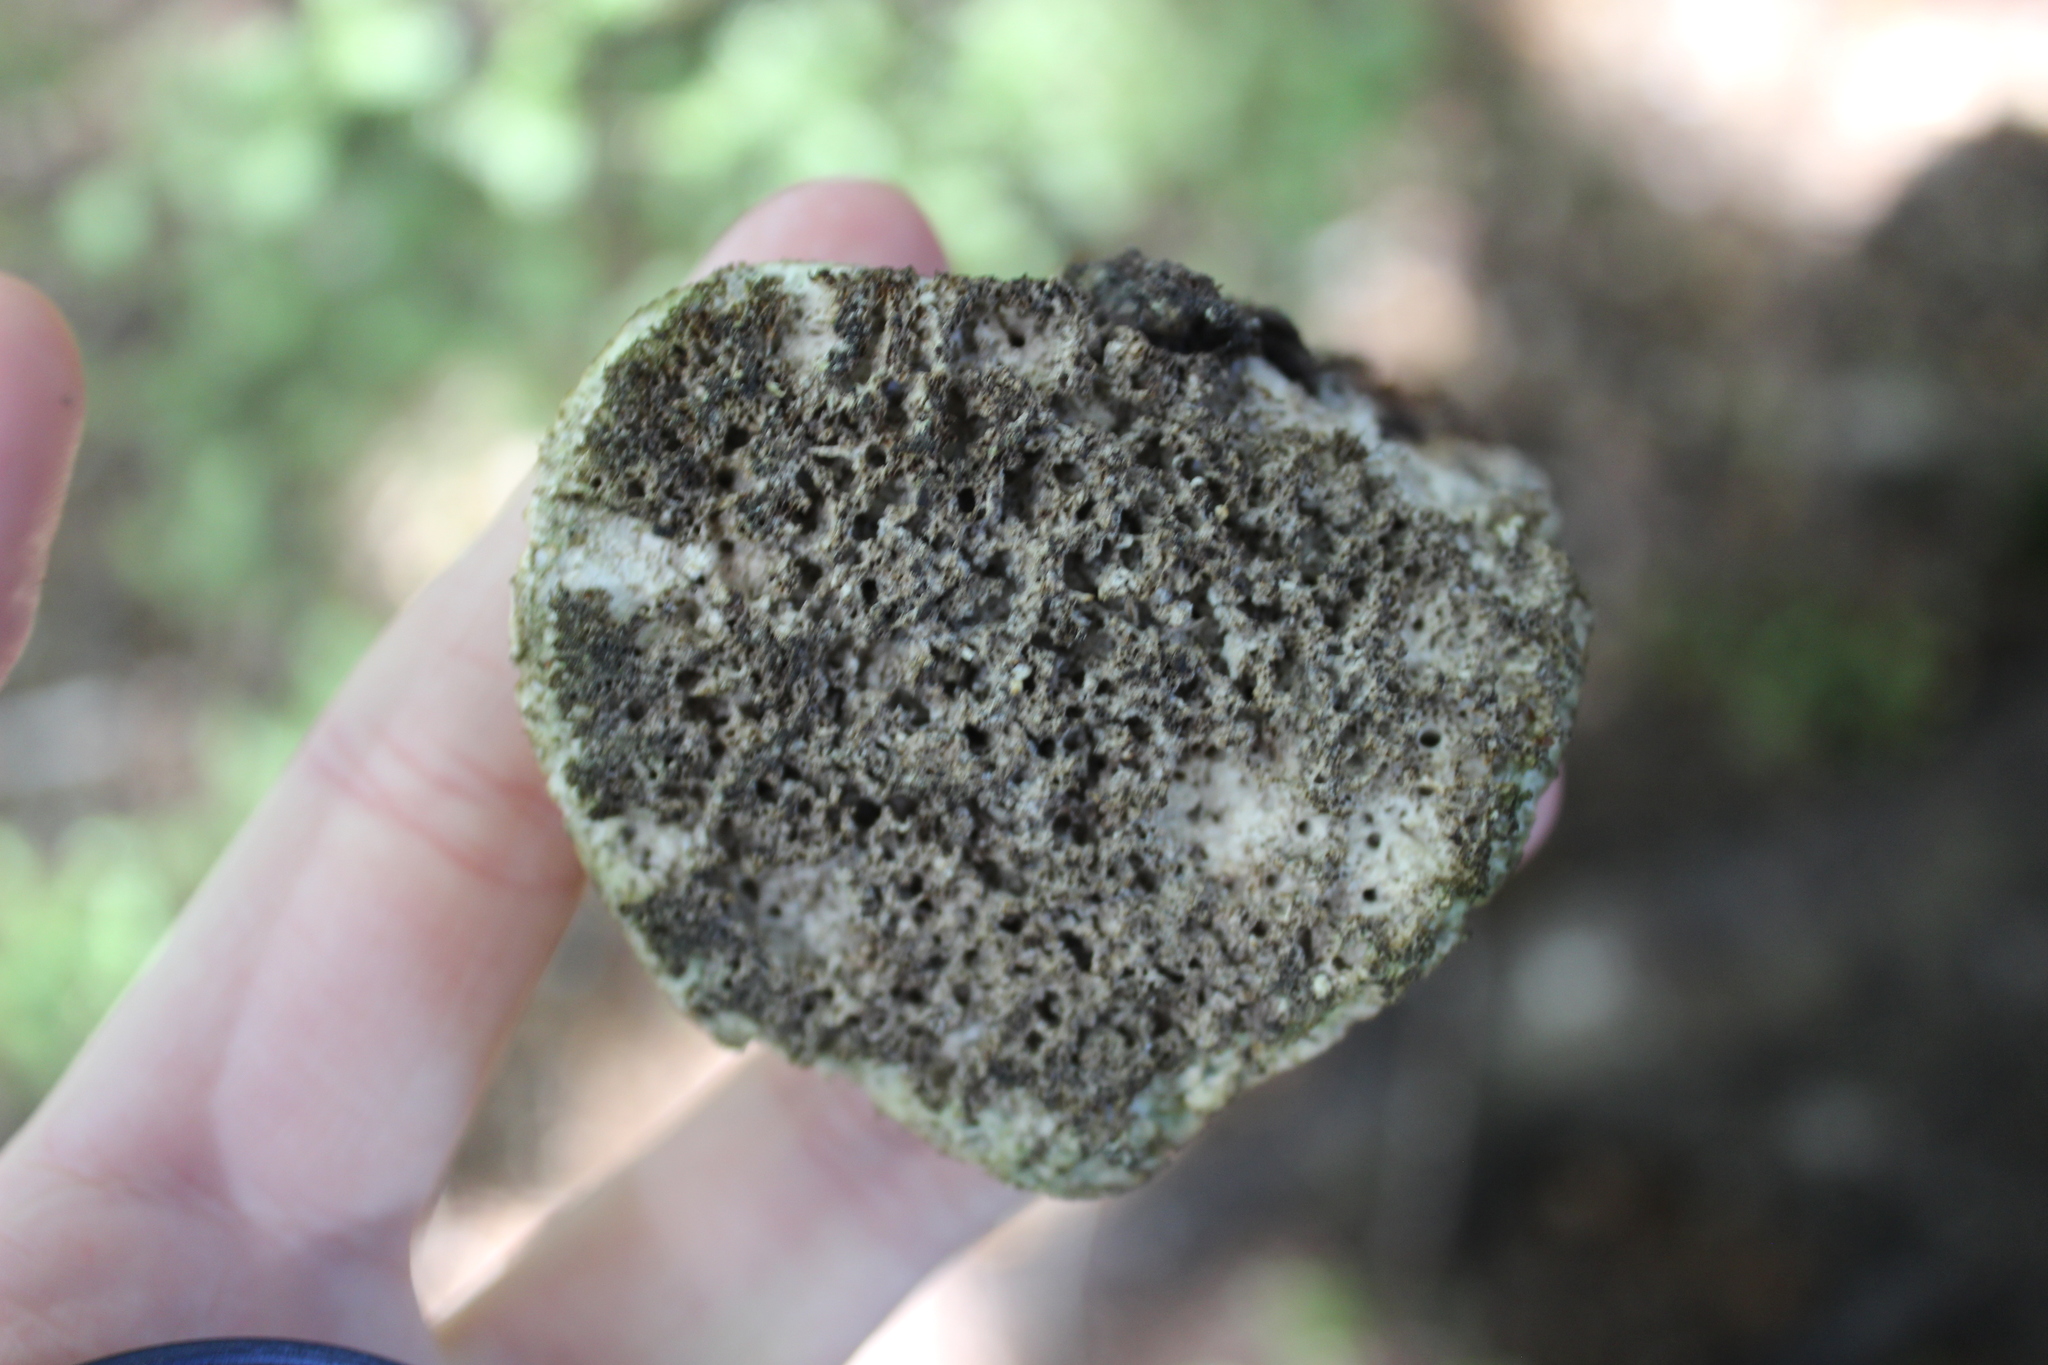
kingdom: Fungi
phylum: Basidiomycota
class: Agaricomycetes
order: Polyporales
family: Laetiporaceae
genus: Laetiporus
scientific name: Laetiporus portentosus
